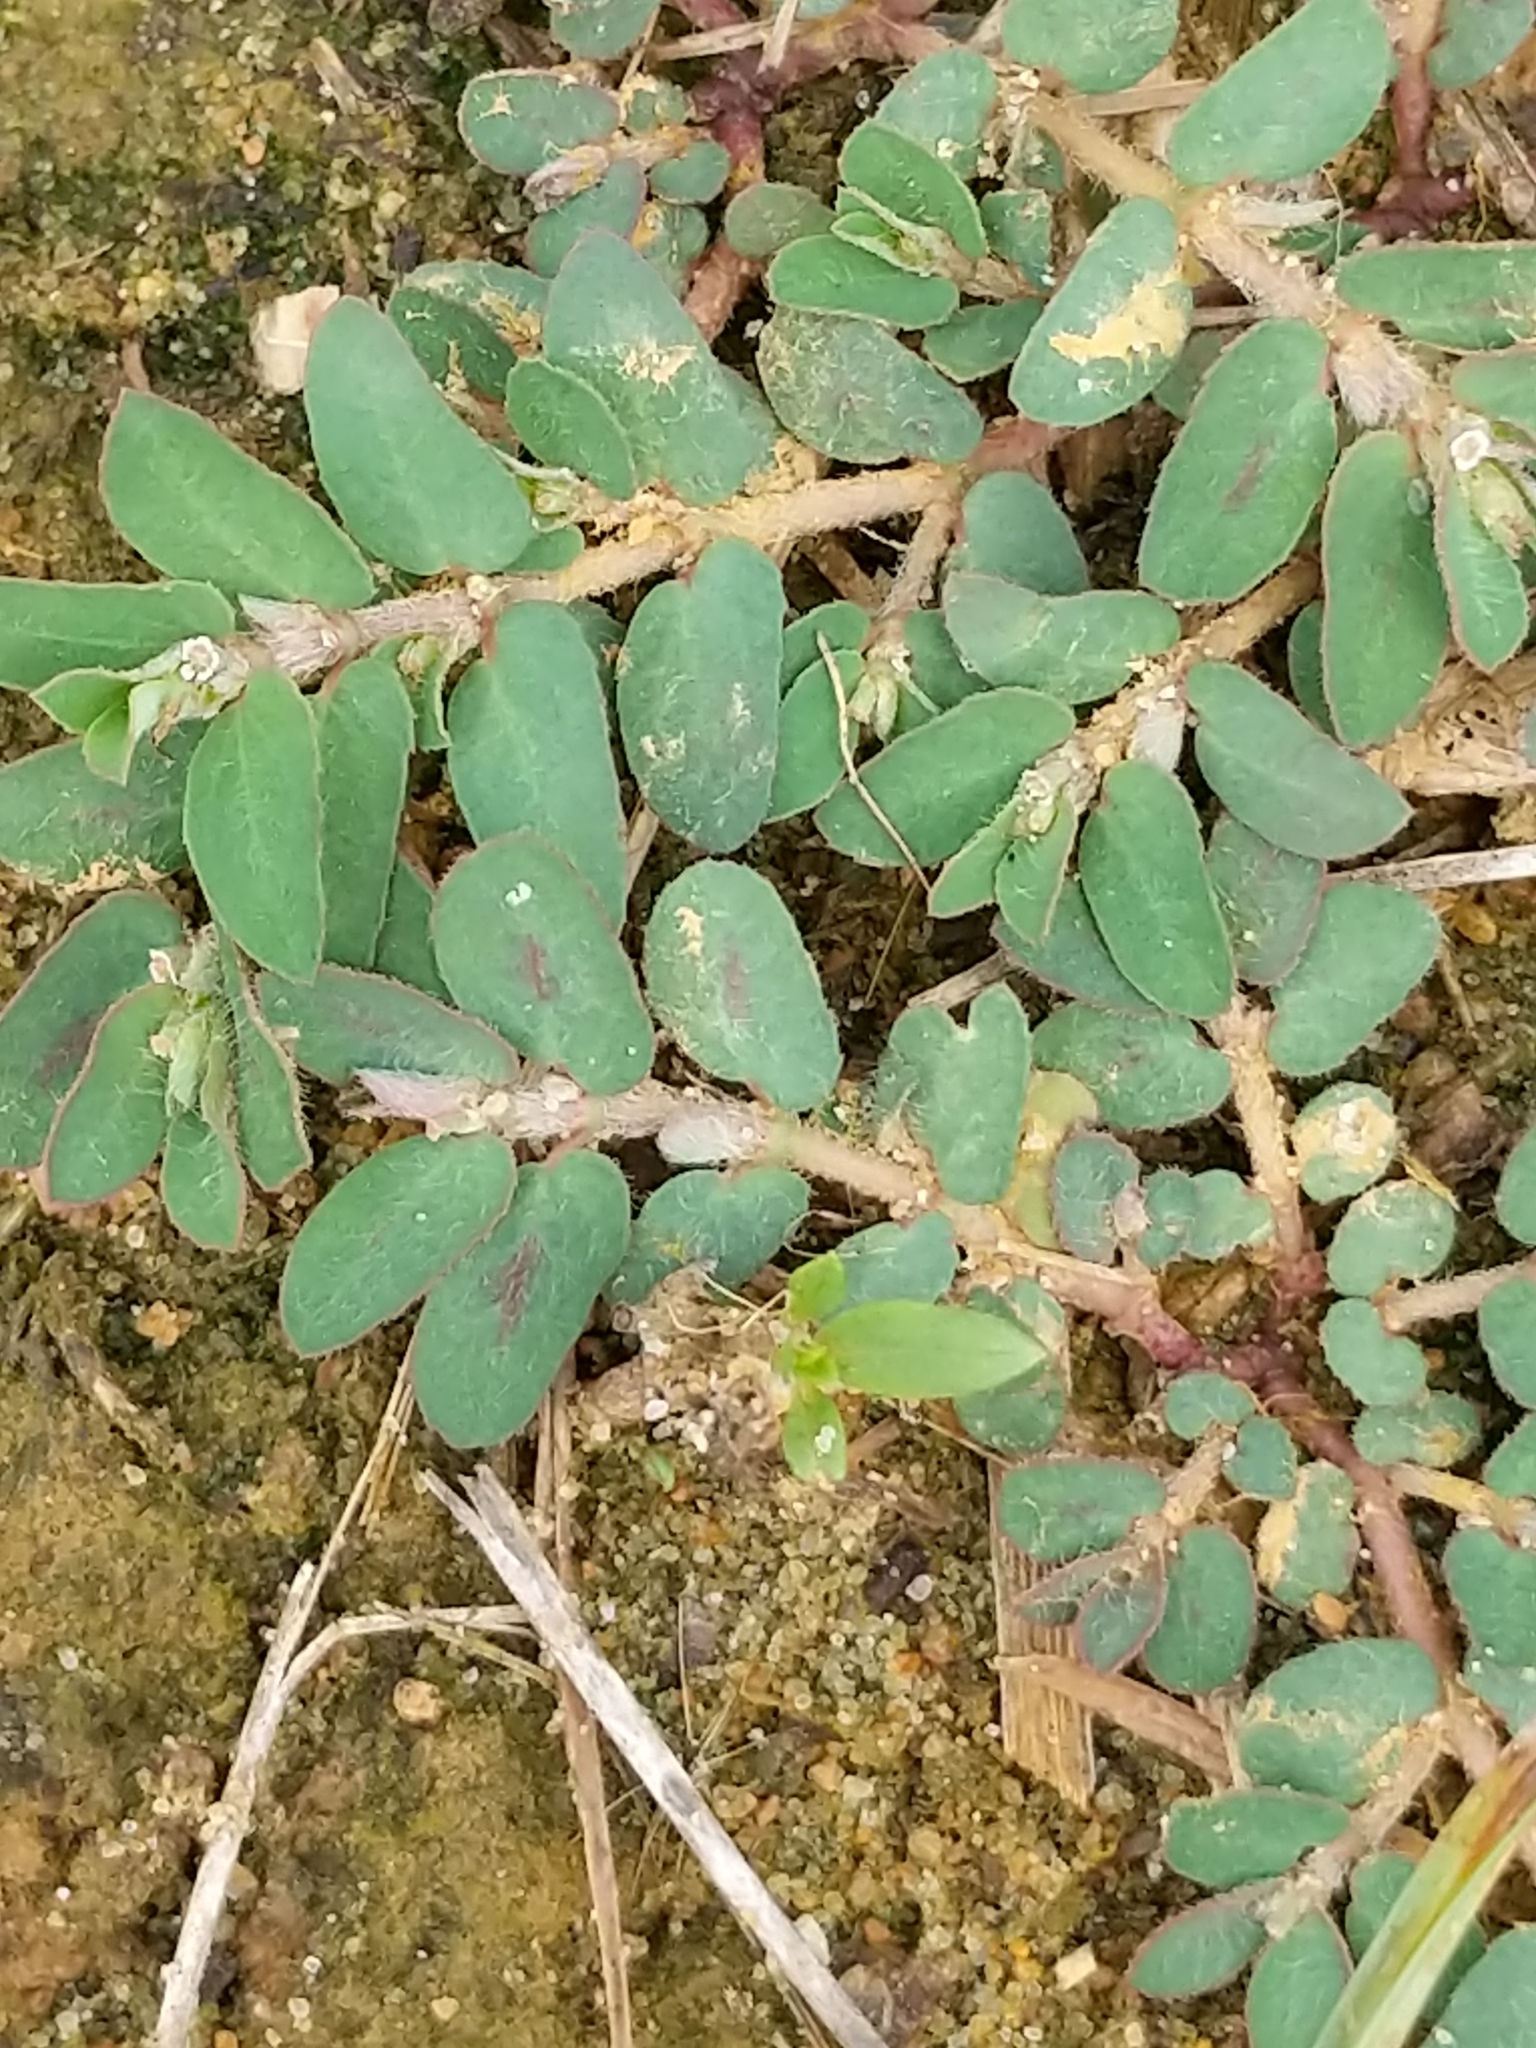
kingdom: Plantae
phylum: Tracheophyta
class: Magnoliopsida
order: Malpighiales
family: Euphorbiaceae
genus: Euphorbia
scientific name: Euphorbia maculata
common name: Spotted spurge
